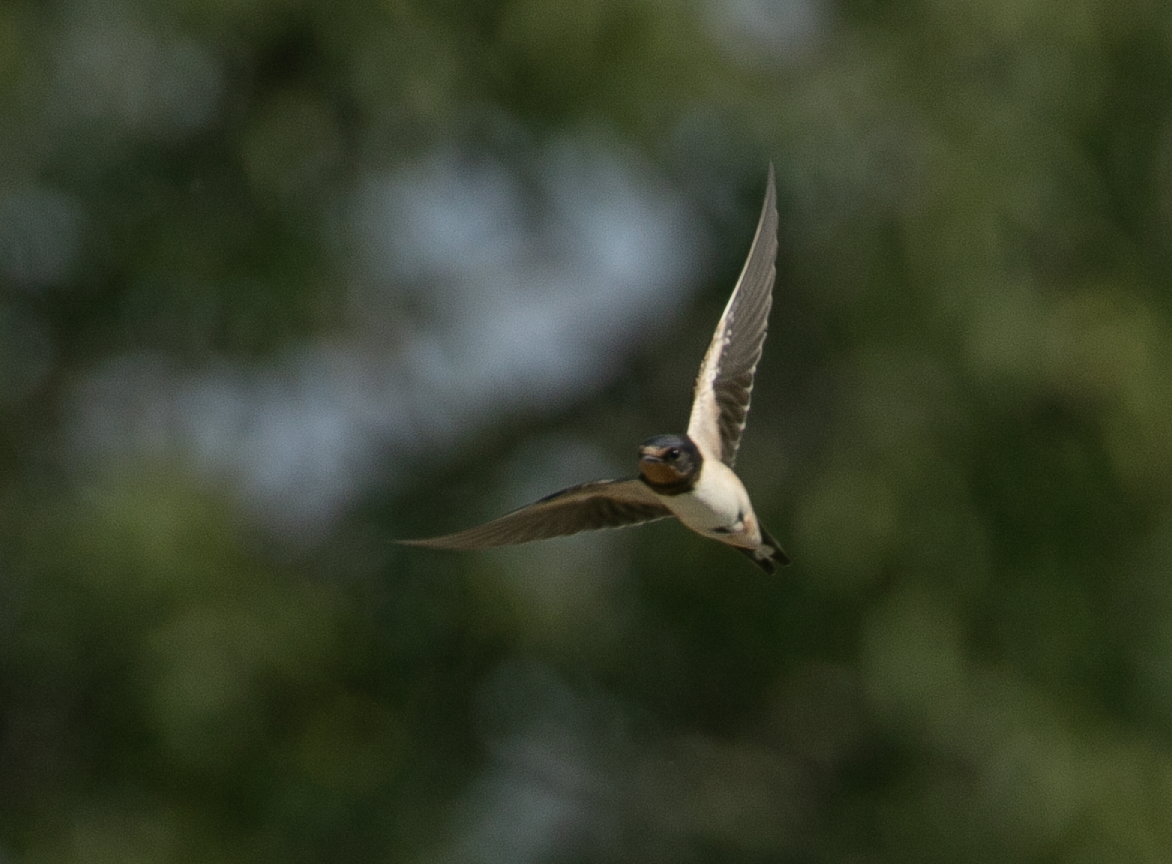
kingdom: Animalia
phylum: Chordata
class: Aves
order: Passeriformes
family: Hirundinidae
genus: Hirundo
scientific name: Hirundo rustica
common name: Barn swallow
